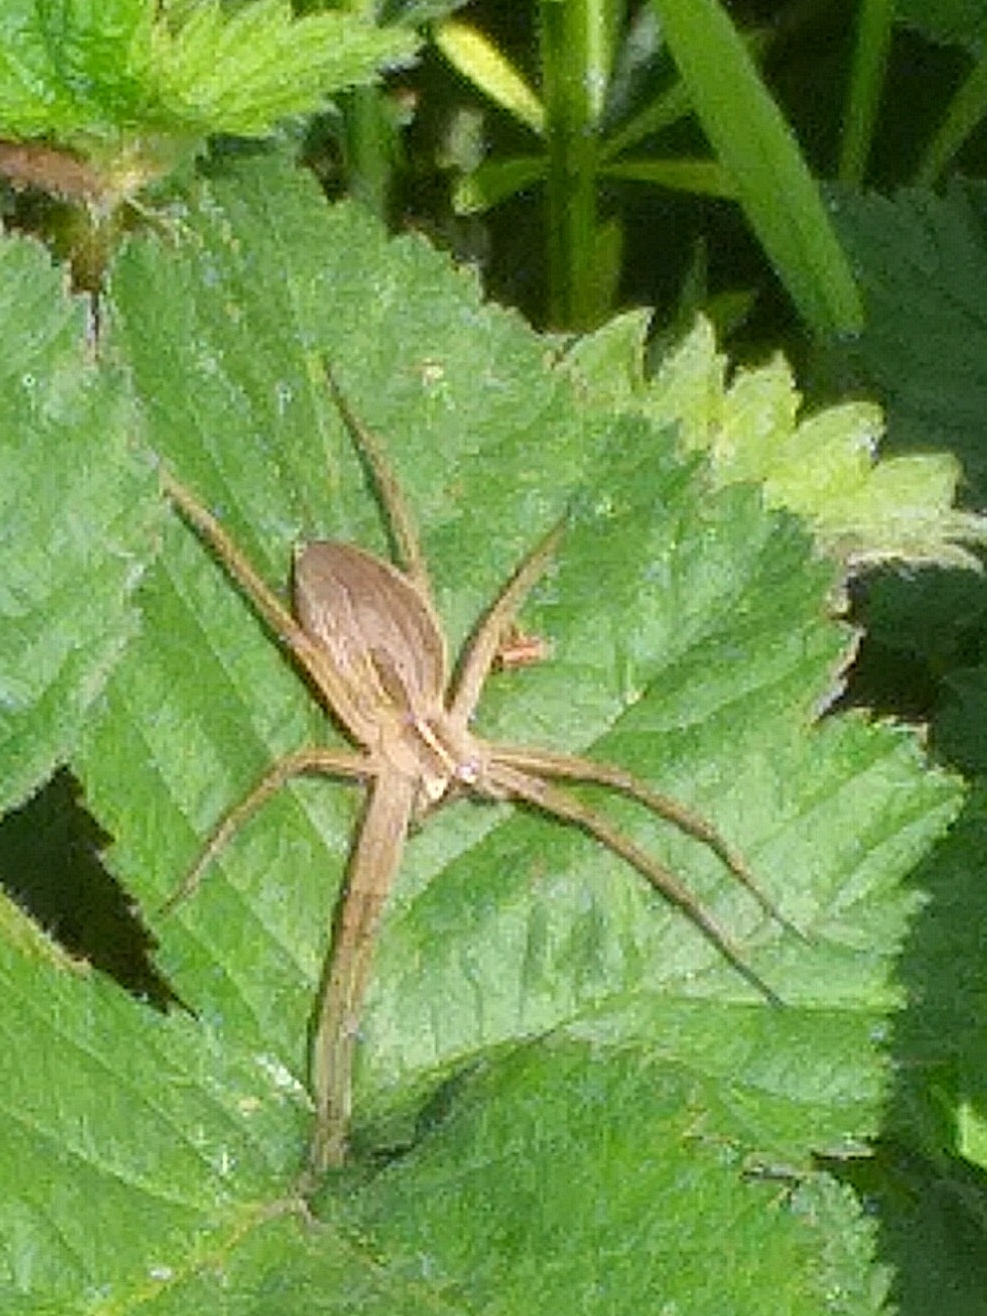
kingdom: Animalia
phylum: Arthropoda
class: Arachnida
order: Araneae
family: Pisauridae
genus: Pisaura
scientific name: Pisaura mirabilis
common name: Tent spider
